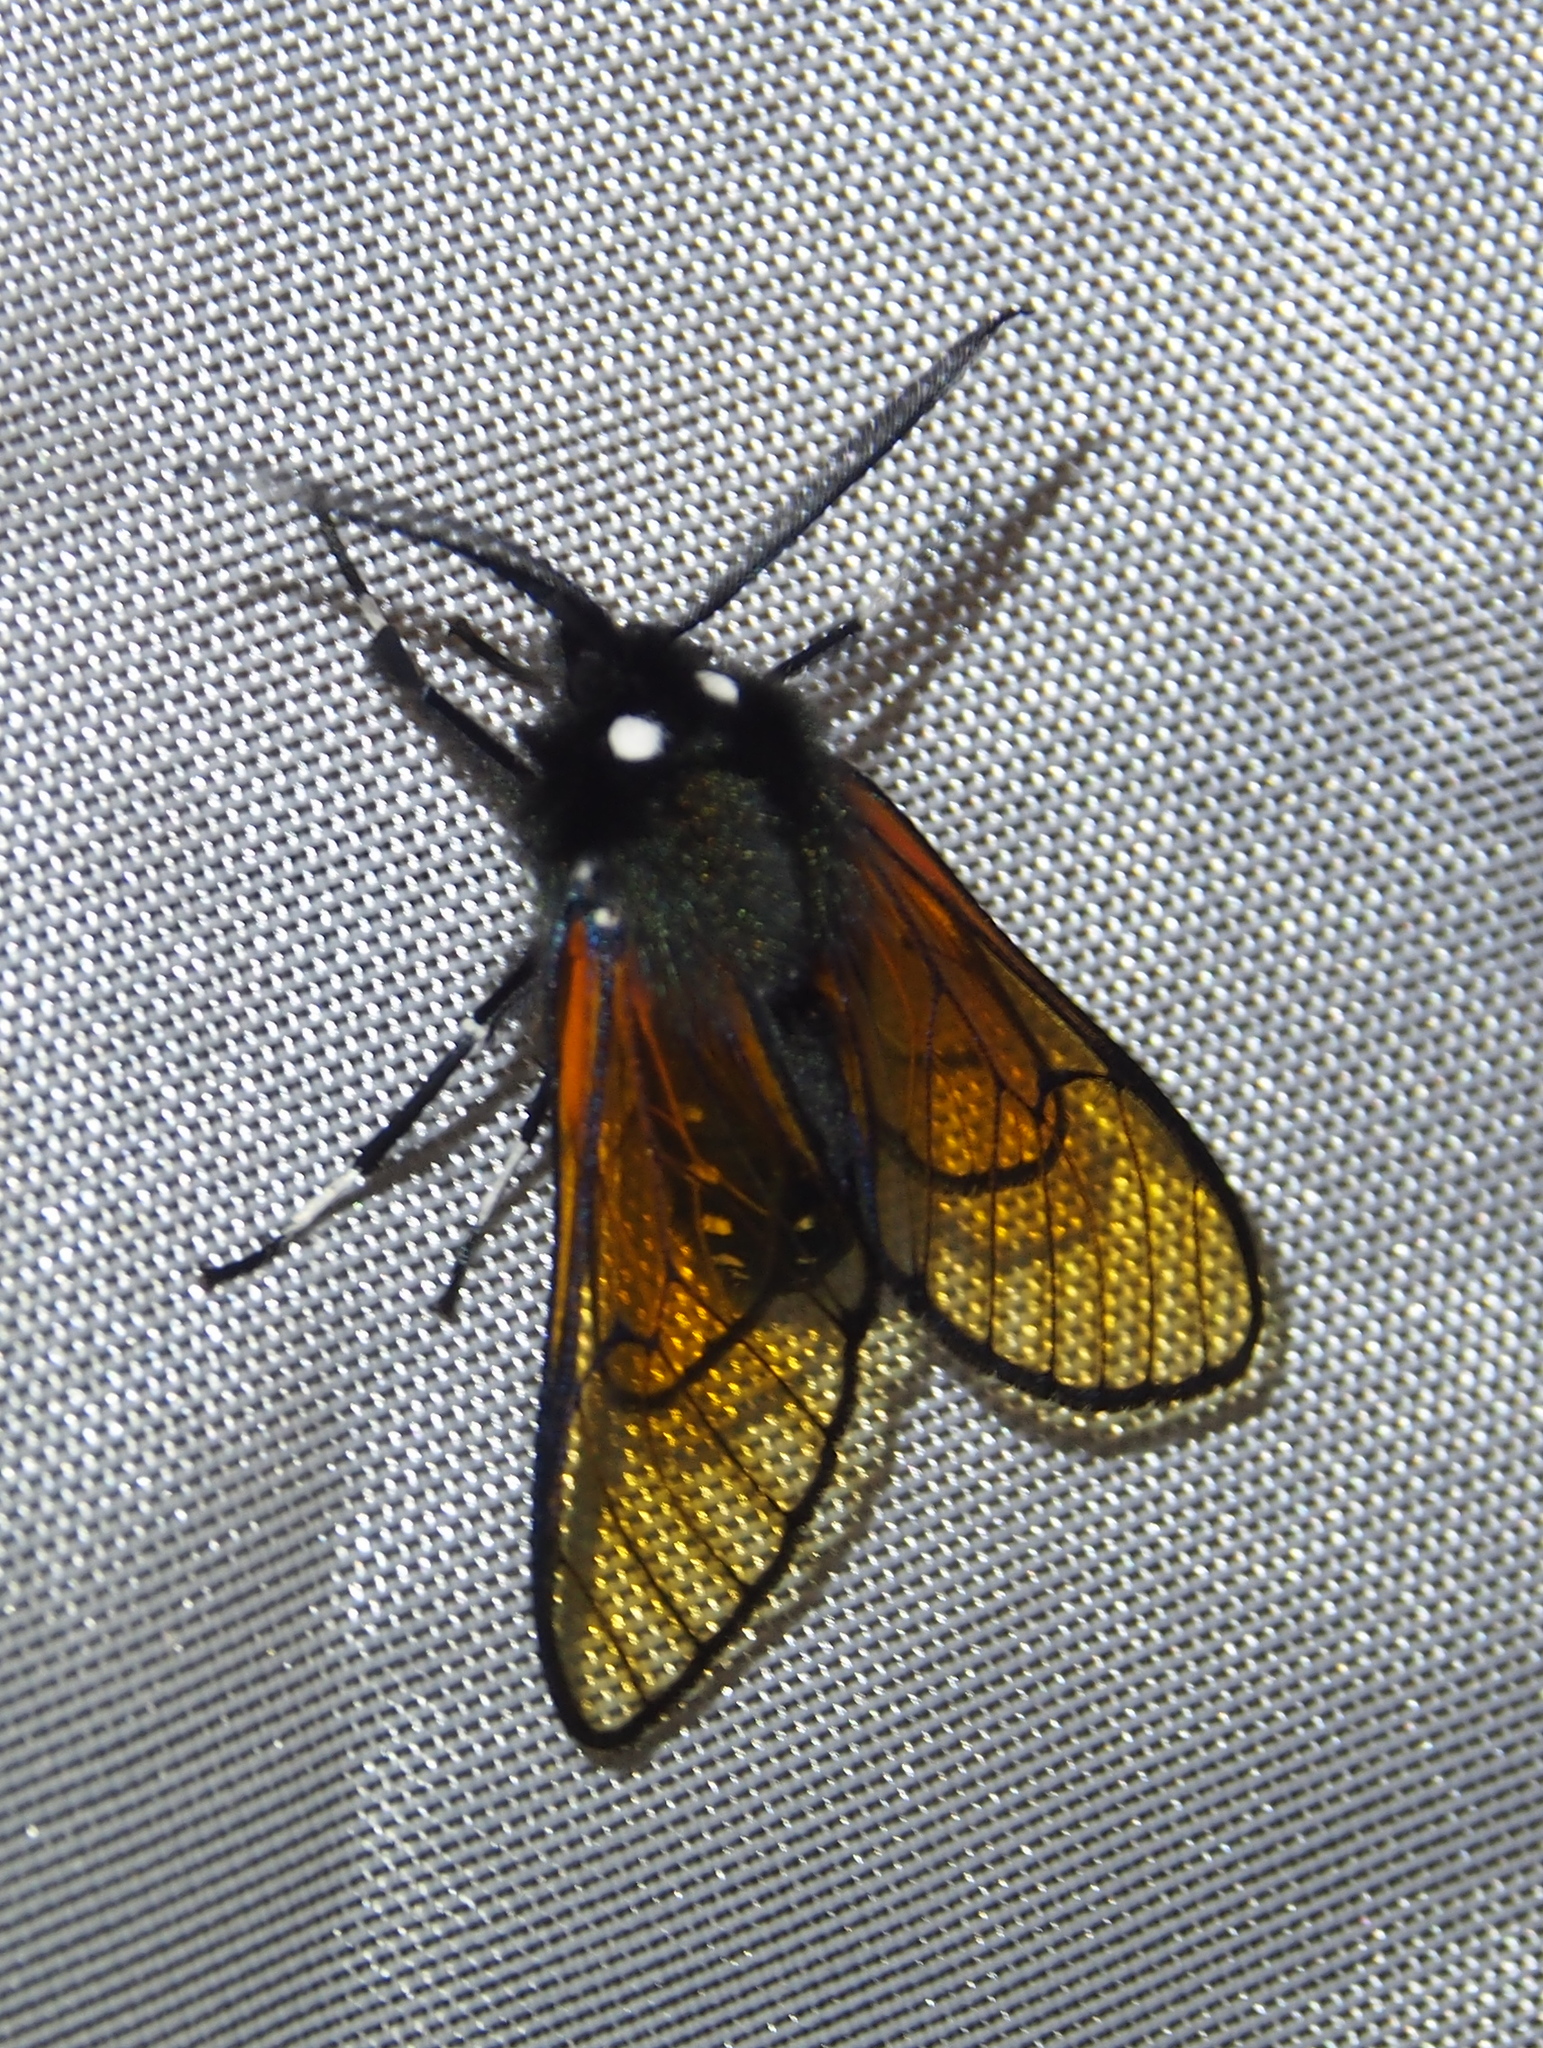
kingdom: Animalia
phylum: Arthropoda
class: Insecta
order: Lepidoptera
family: Erebidae
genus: Dasysphinx
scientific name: Dasysphinx volatilis
